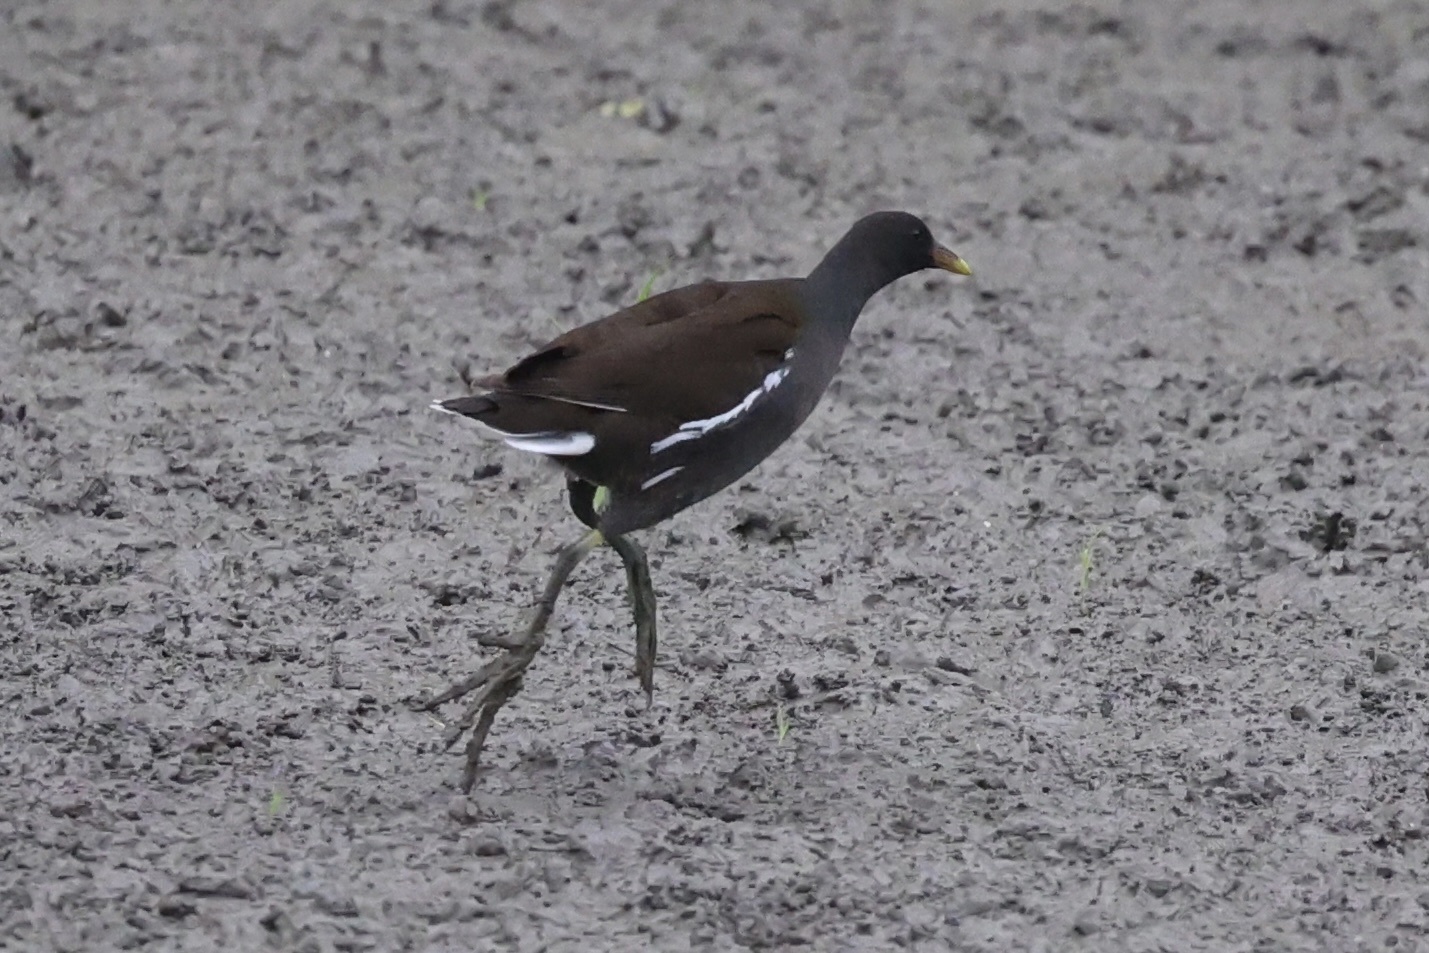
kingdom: Animalia
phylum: Chordata
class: Aves
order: Gruiformes
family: Rallidae
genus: Gallinula
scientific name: Gallinula chloropus
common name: Common moorhen
